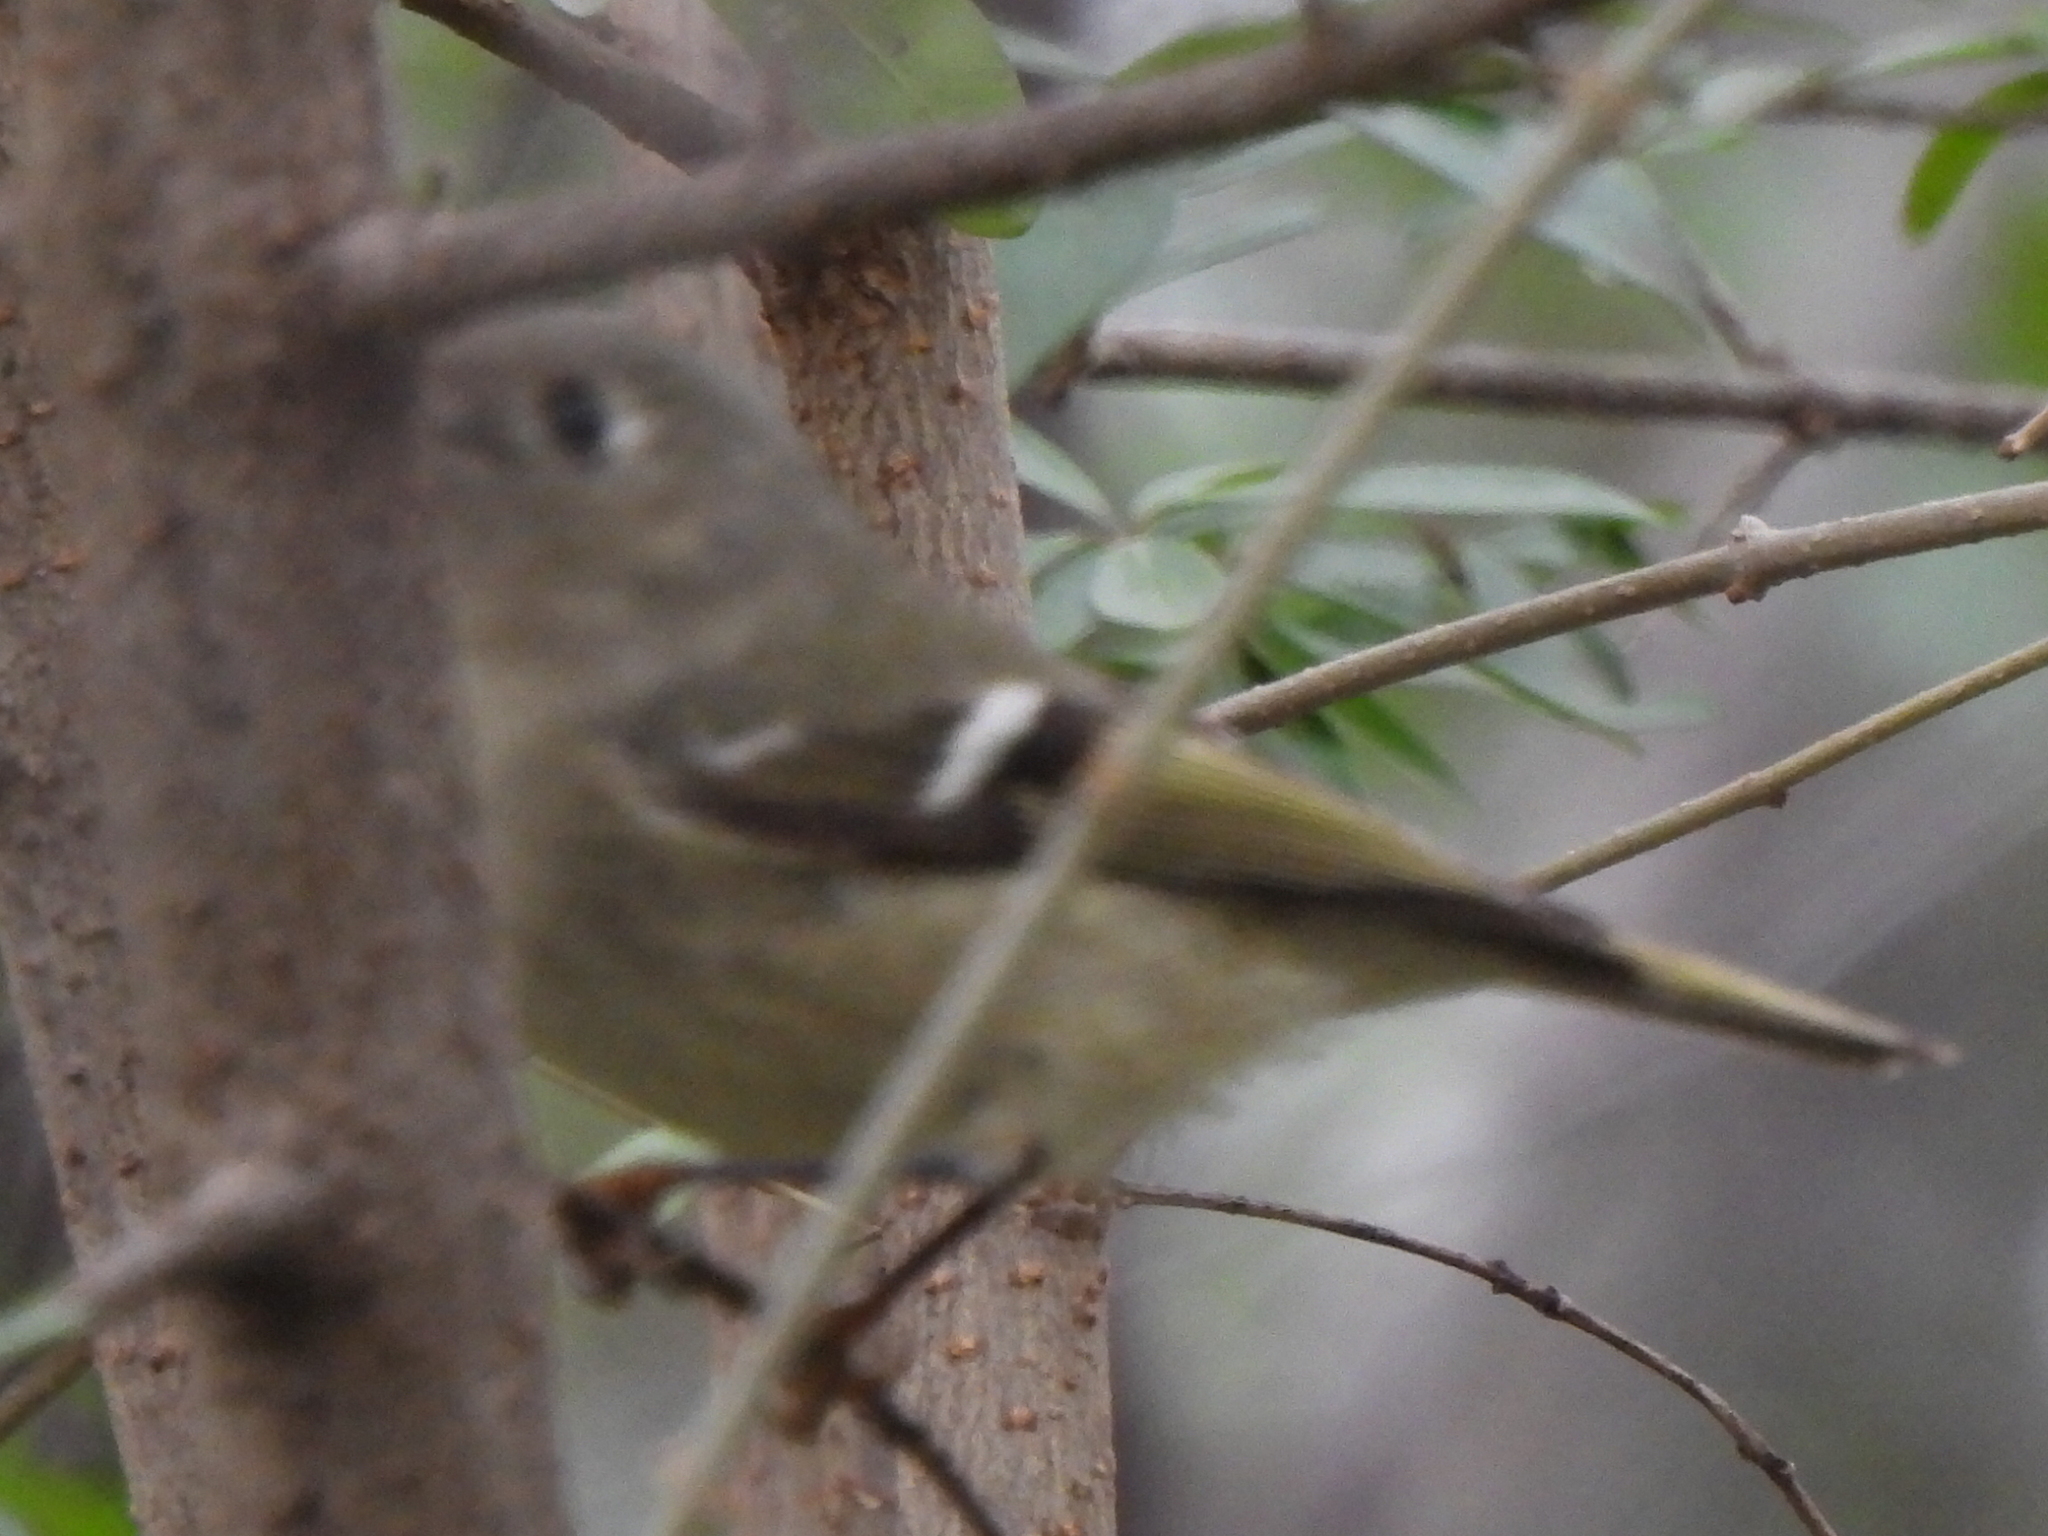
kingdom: Animalia
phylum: Chordata
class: Aves
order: Passeriformes
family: Regulidae
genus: Regulus
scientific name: Regulus calendula
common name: Ruby-crowned kinglet
